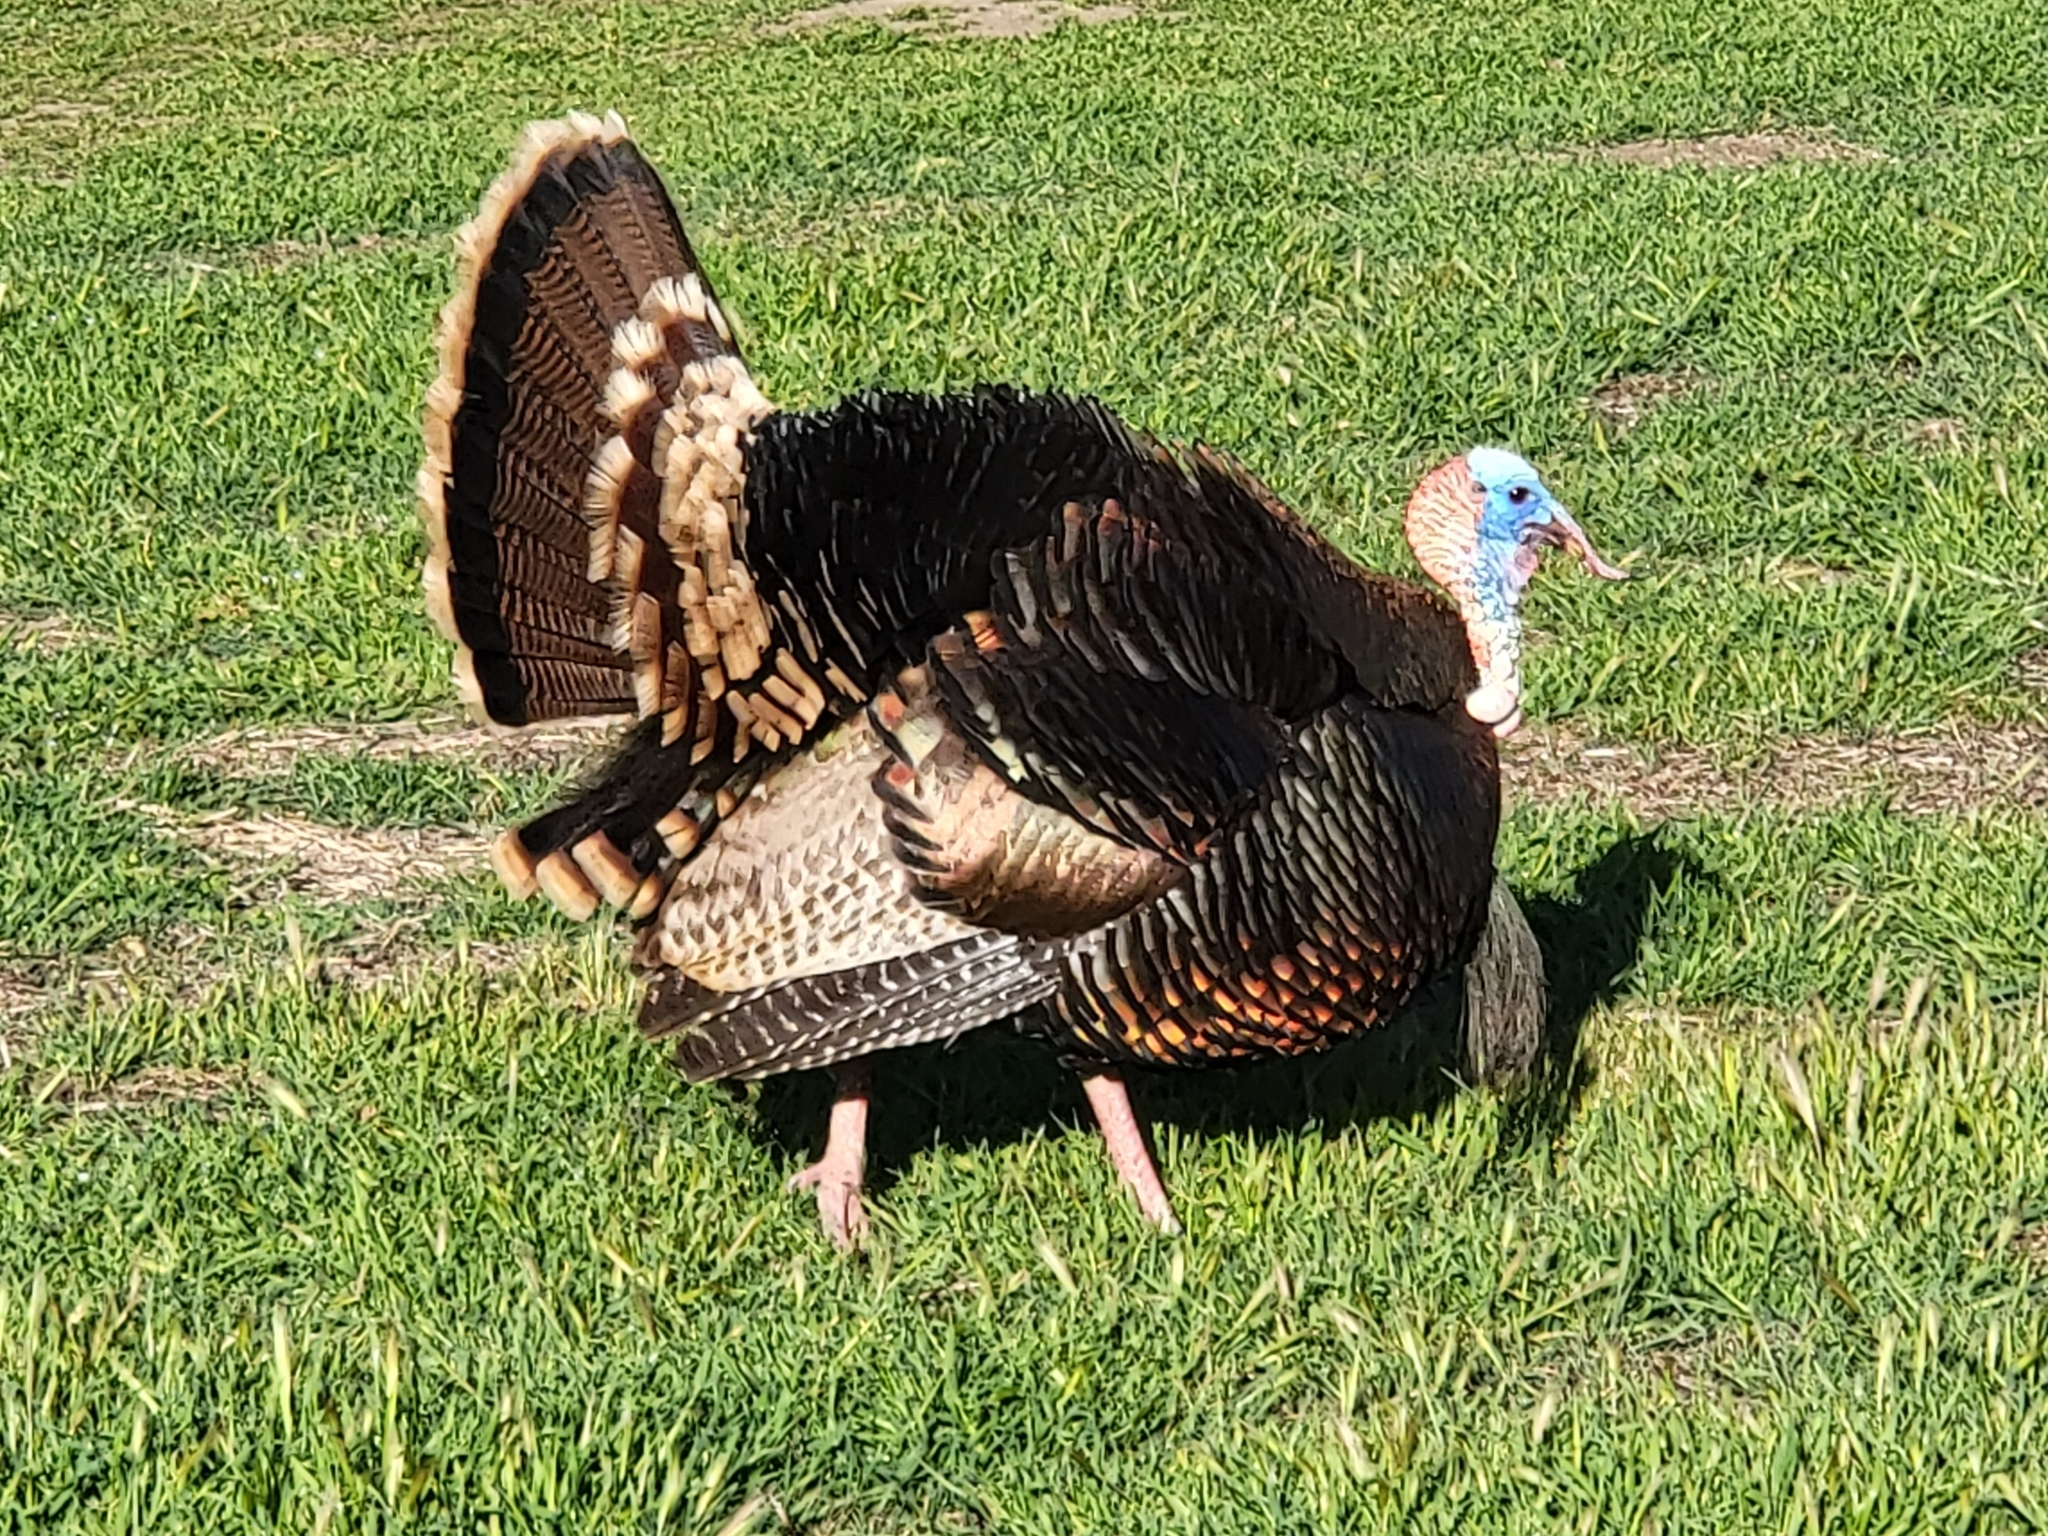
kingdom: Animalia
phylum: Chordata
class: Aves
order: Galliformes
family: Phasianidae
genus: Meleagris
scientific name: Meleagris gallopavo
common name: Wild turkey
